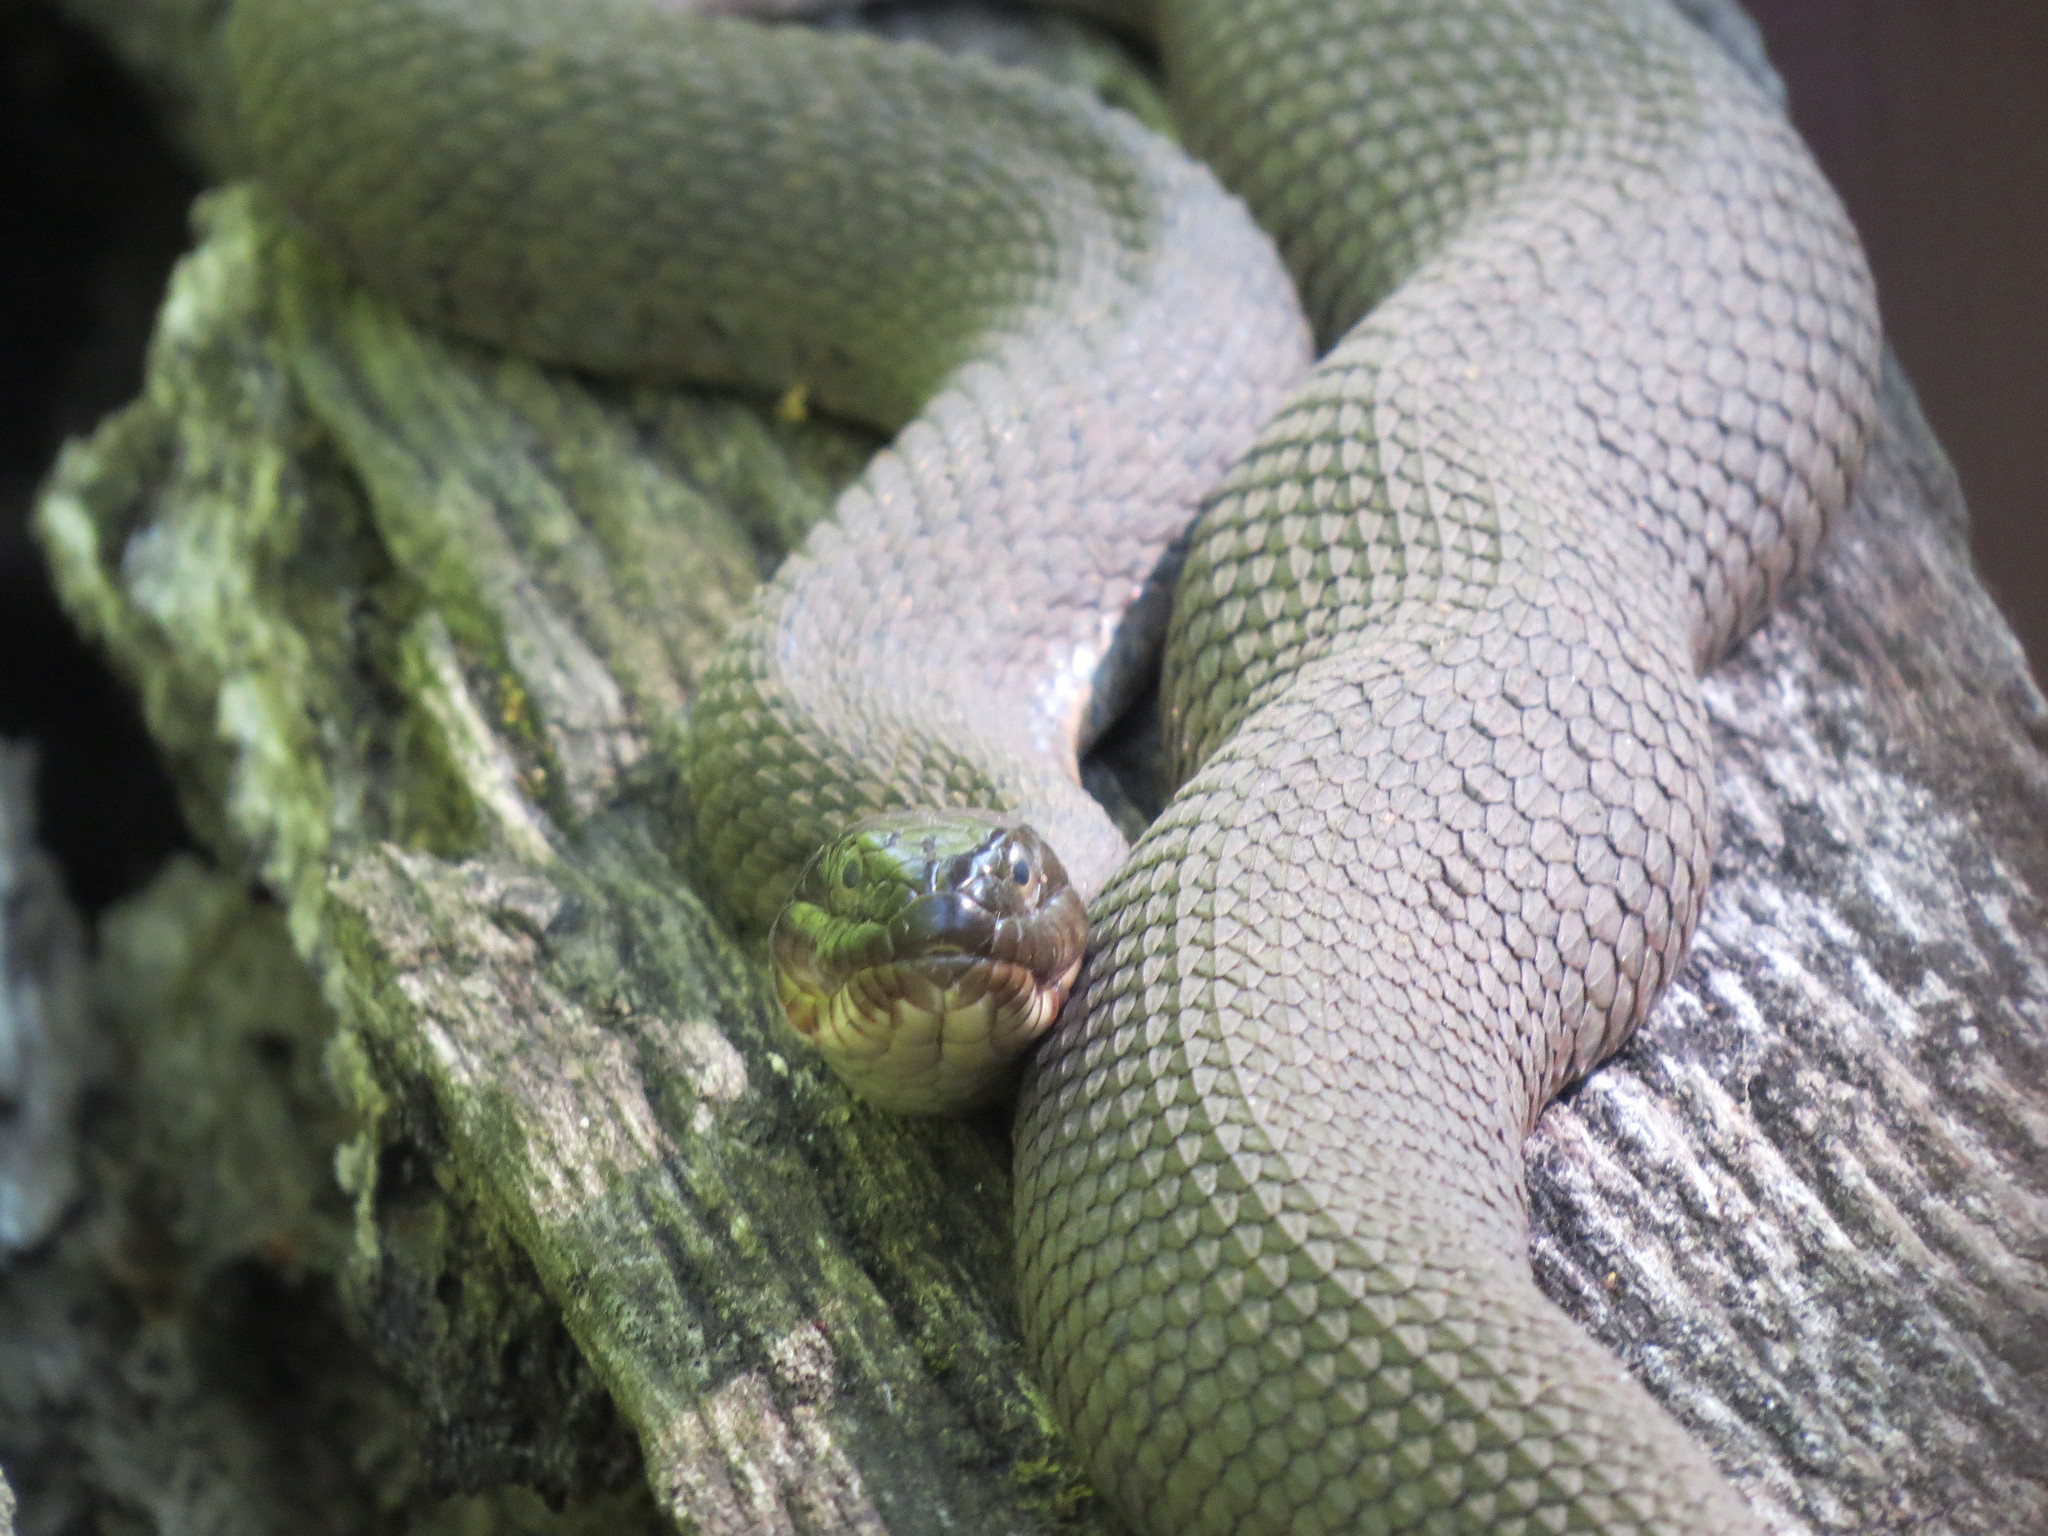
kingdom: Animalia
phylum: Chordata
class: Squamata
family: Colubridae
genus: Nerodia
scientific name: Nerodia sipedon
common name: Northern water snake
